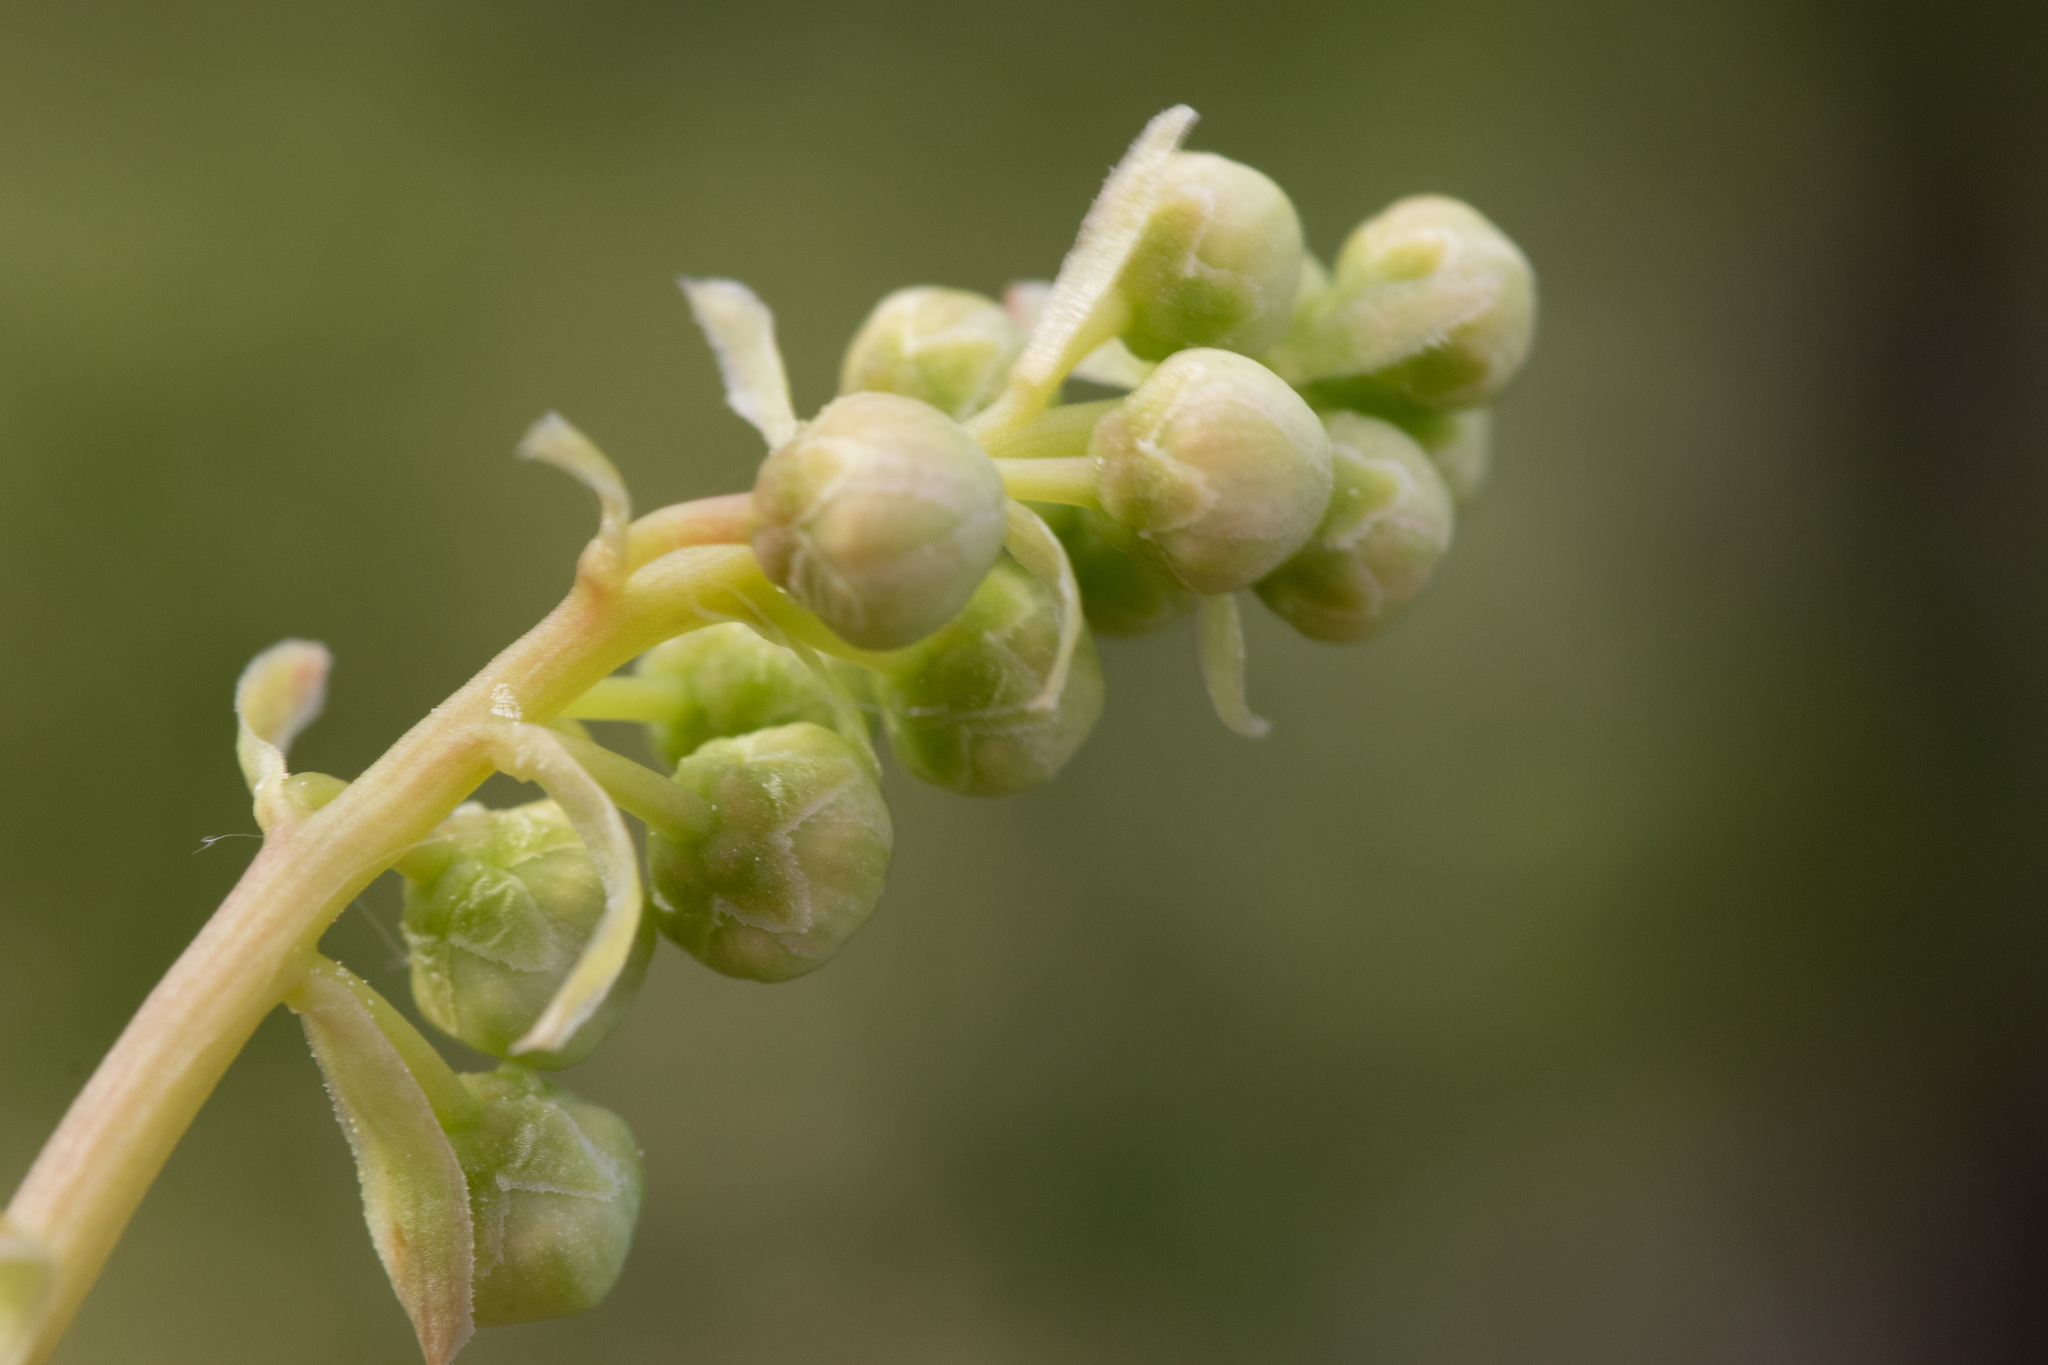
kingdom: Plantae
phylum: Tracheophyta
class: Magnoliopsida
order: Ericales
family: Ericaceae
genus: Orthilia
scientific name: Orthilia secunda
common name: One-sided orthilia
